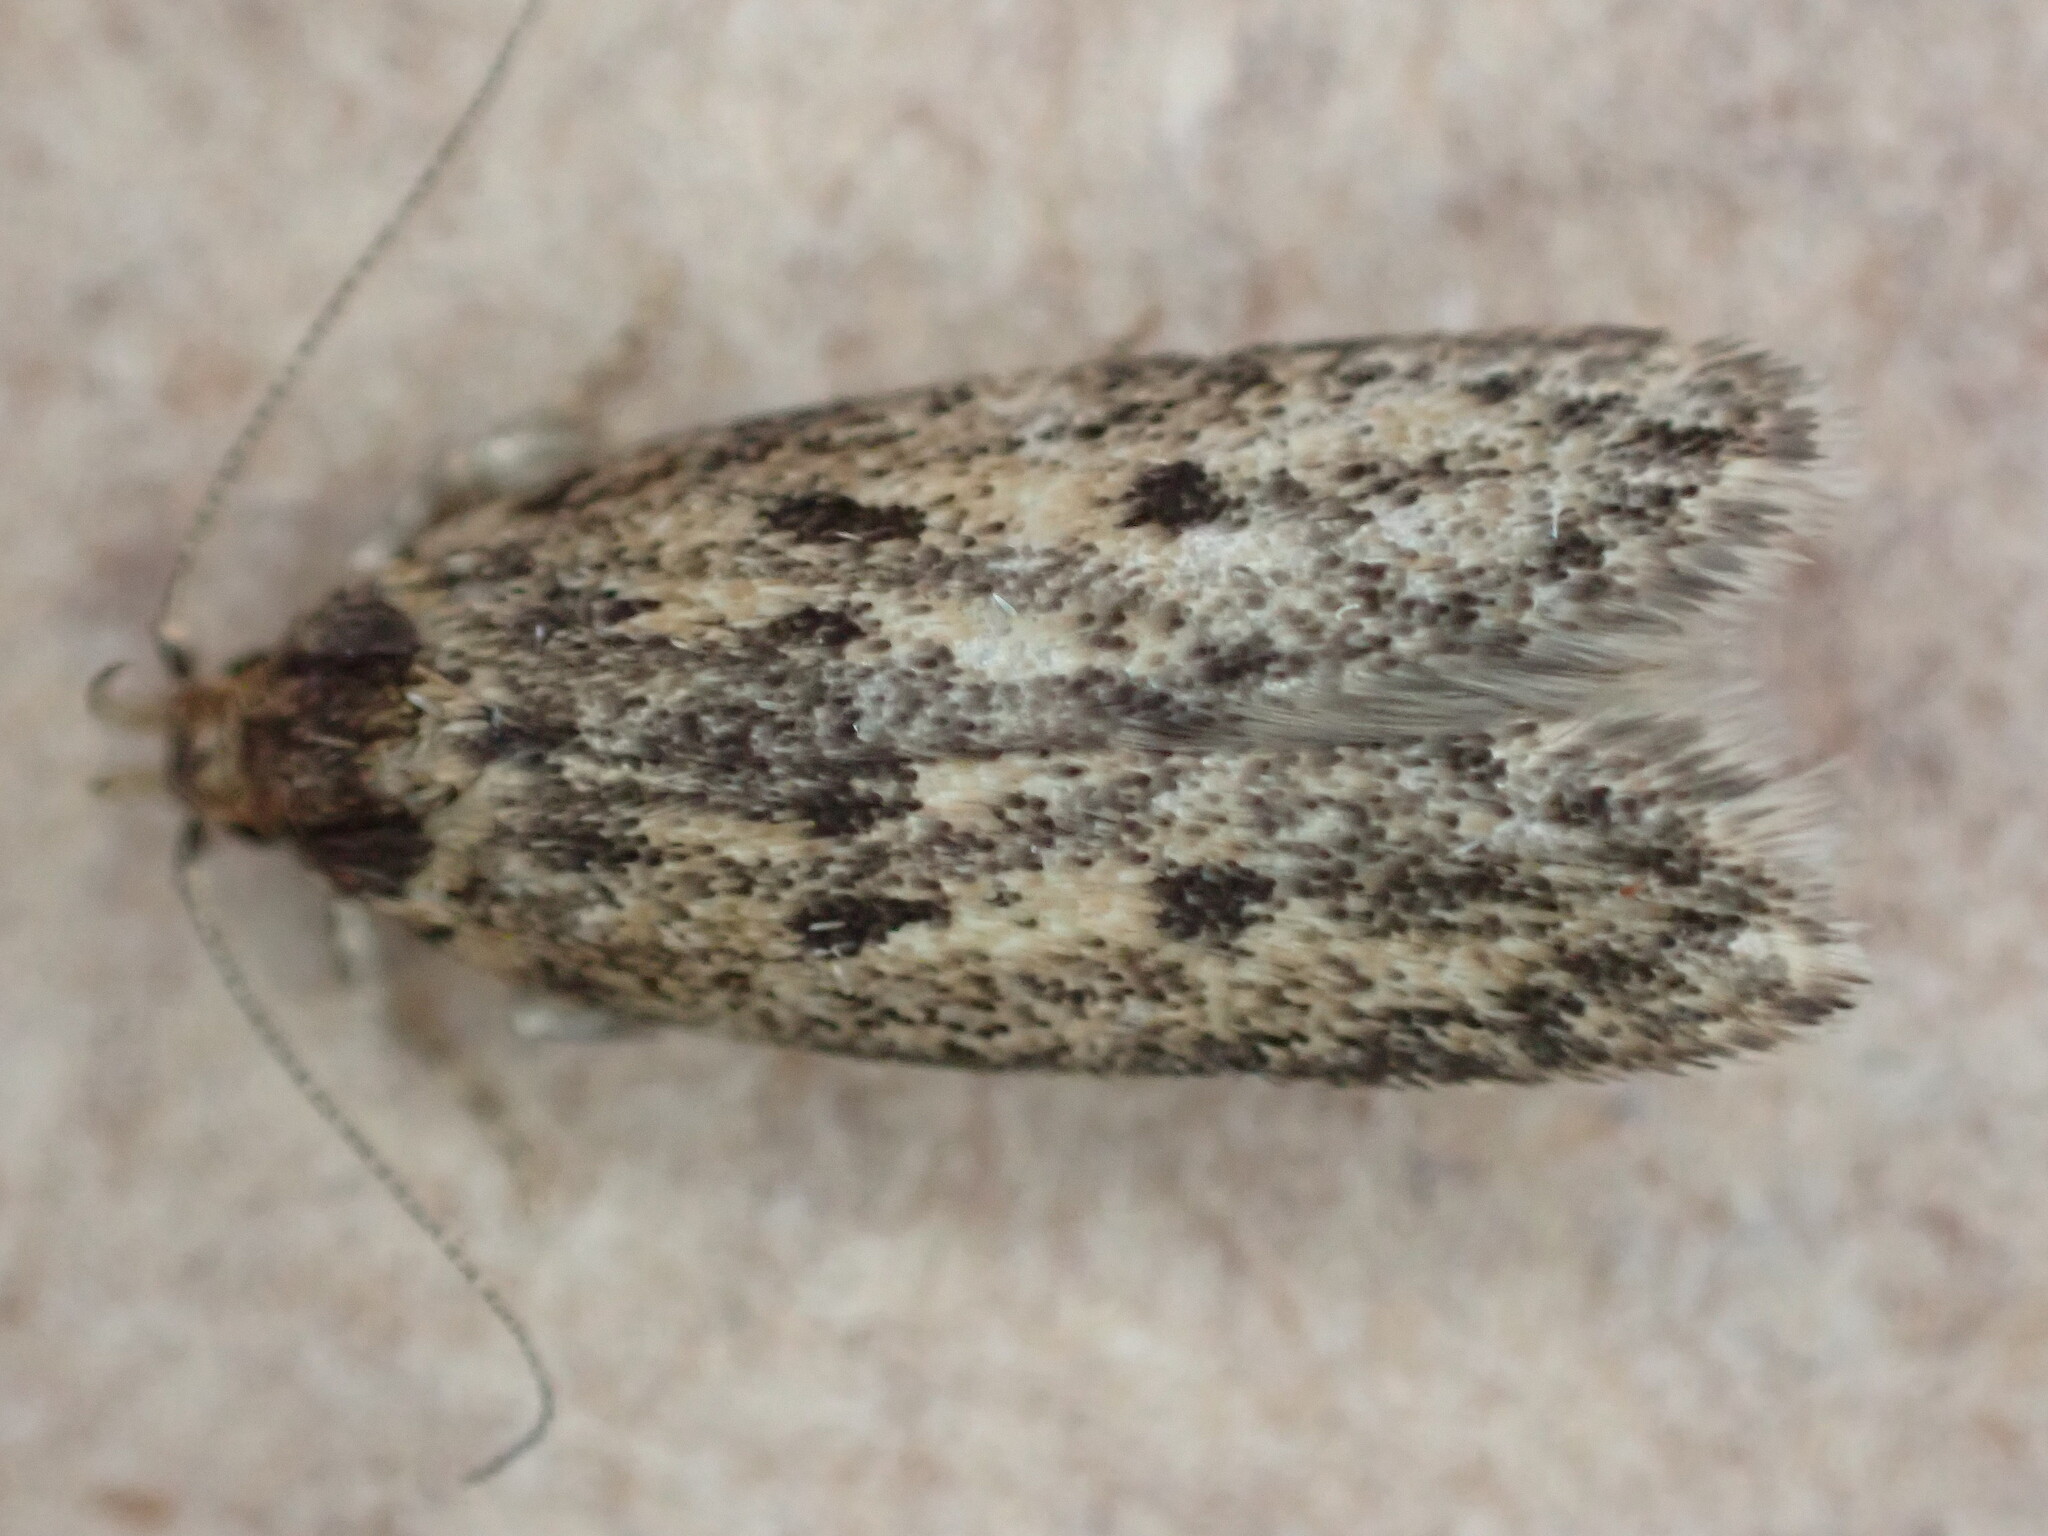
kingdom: Animalia
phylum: Arthropoda
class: Insecta
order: Lepidoptera
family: Oecophoridae
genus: Hofmannophila
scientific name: Hofmannophila pseudospretella
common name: Brown house moth
